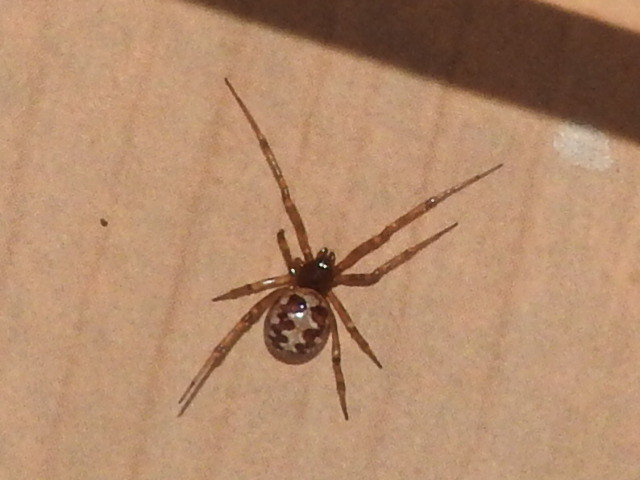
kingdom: Animalia
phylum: Arthropoda
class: Arachnida
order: Araneae
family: Theridiidae
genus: Steatoda
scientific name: Steatoda triangulosa
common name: Triangulate bud spider
